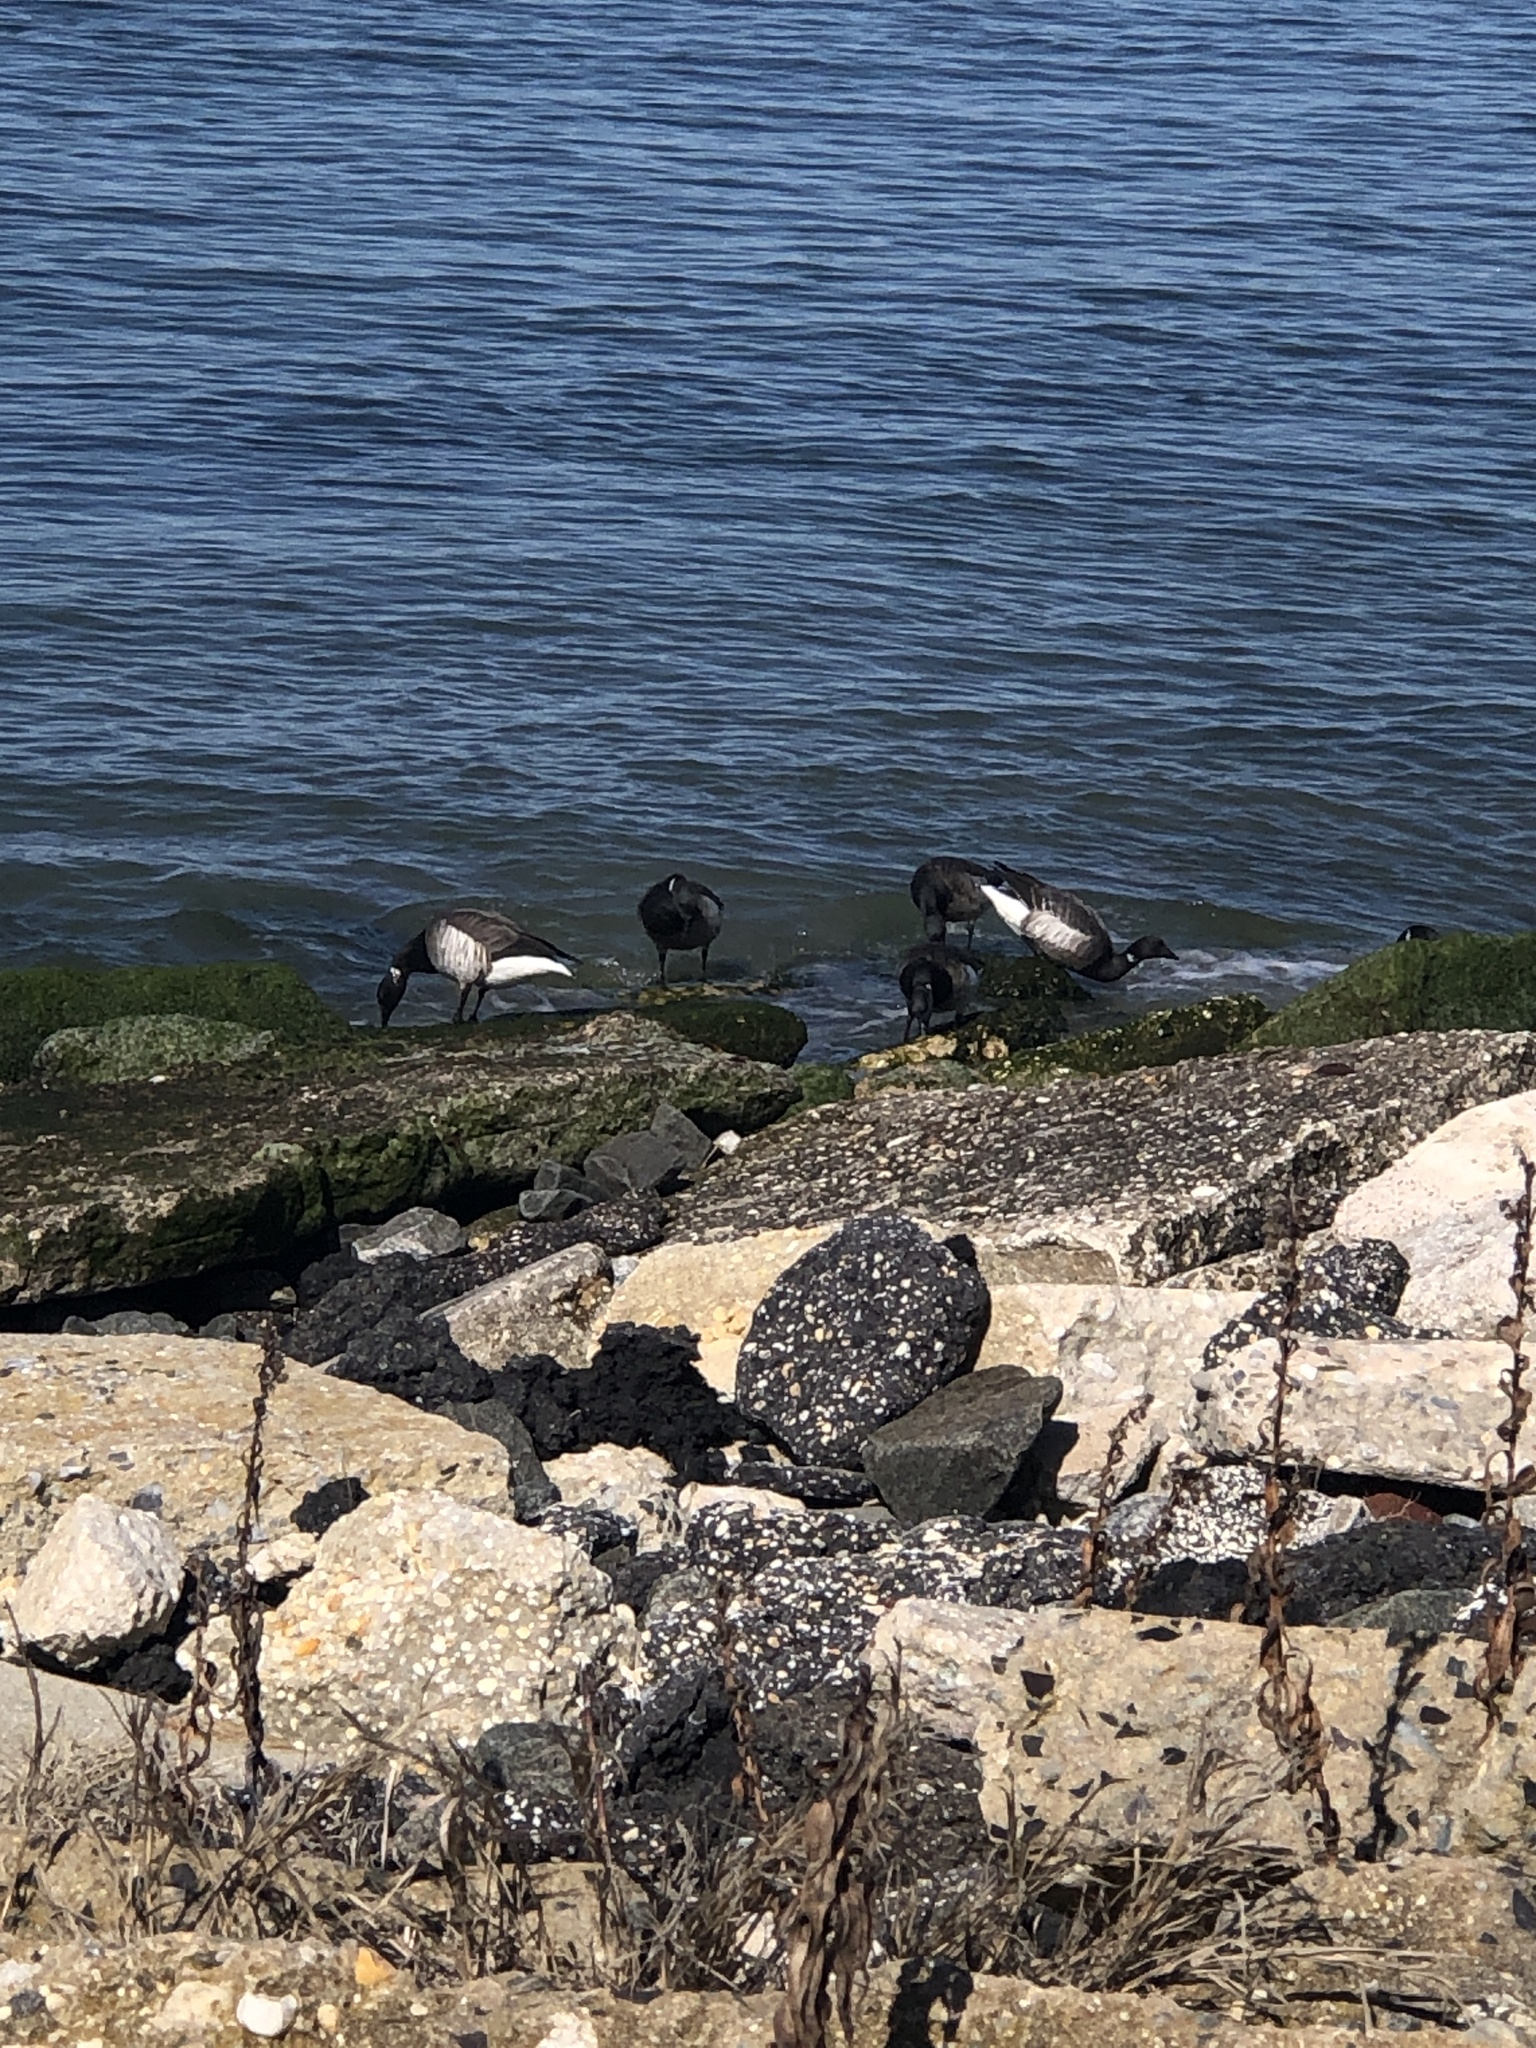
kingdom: Animalia
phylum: Chordata
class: Aves
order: Anseriformes
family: Anatidae
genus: Branta
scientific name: Branta bernicla
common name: Brant goose
